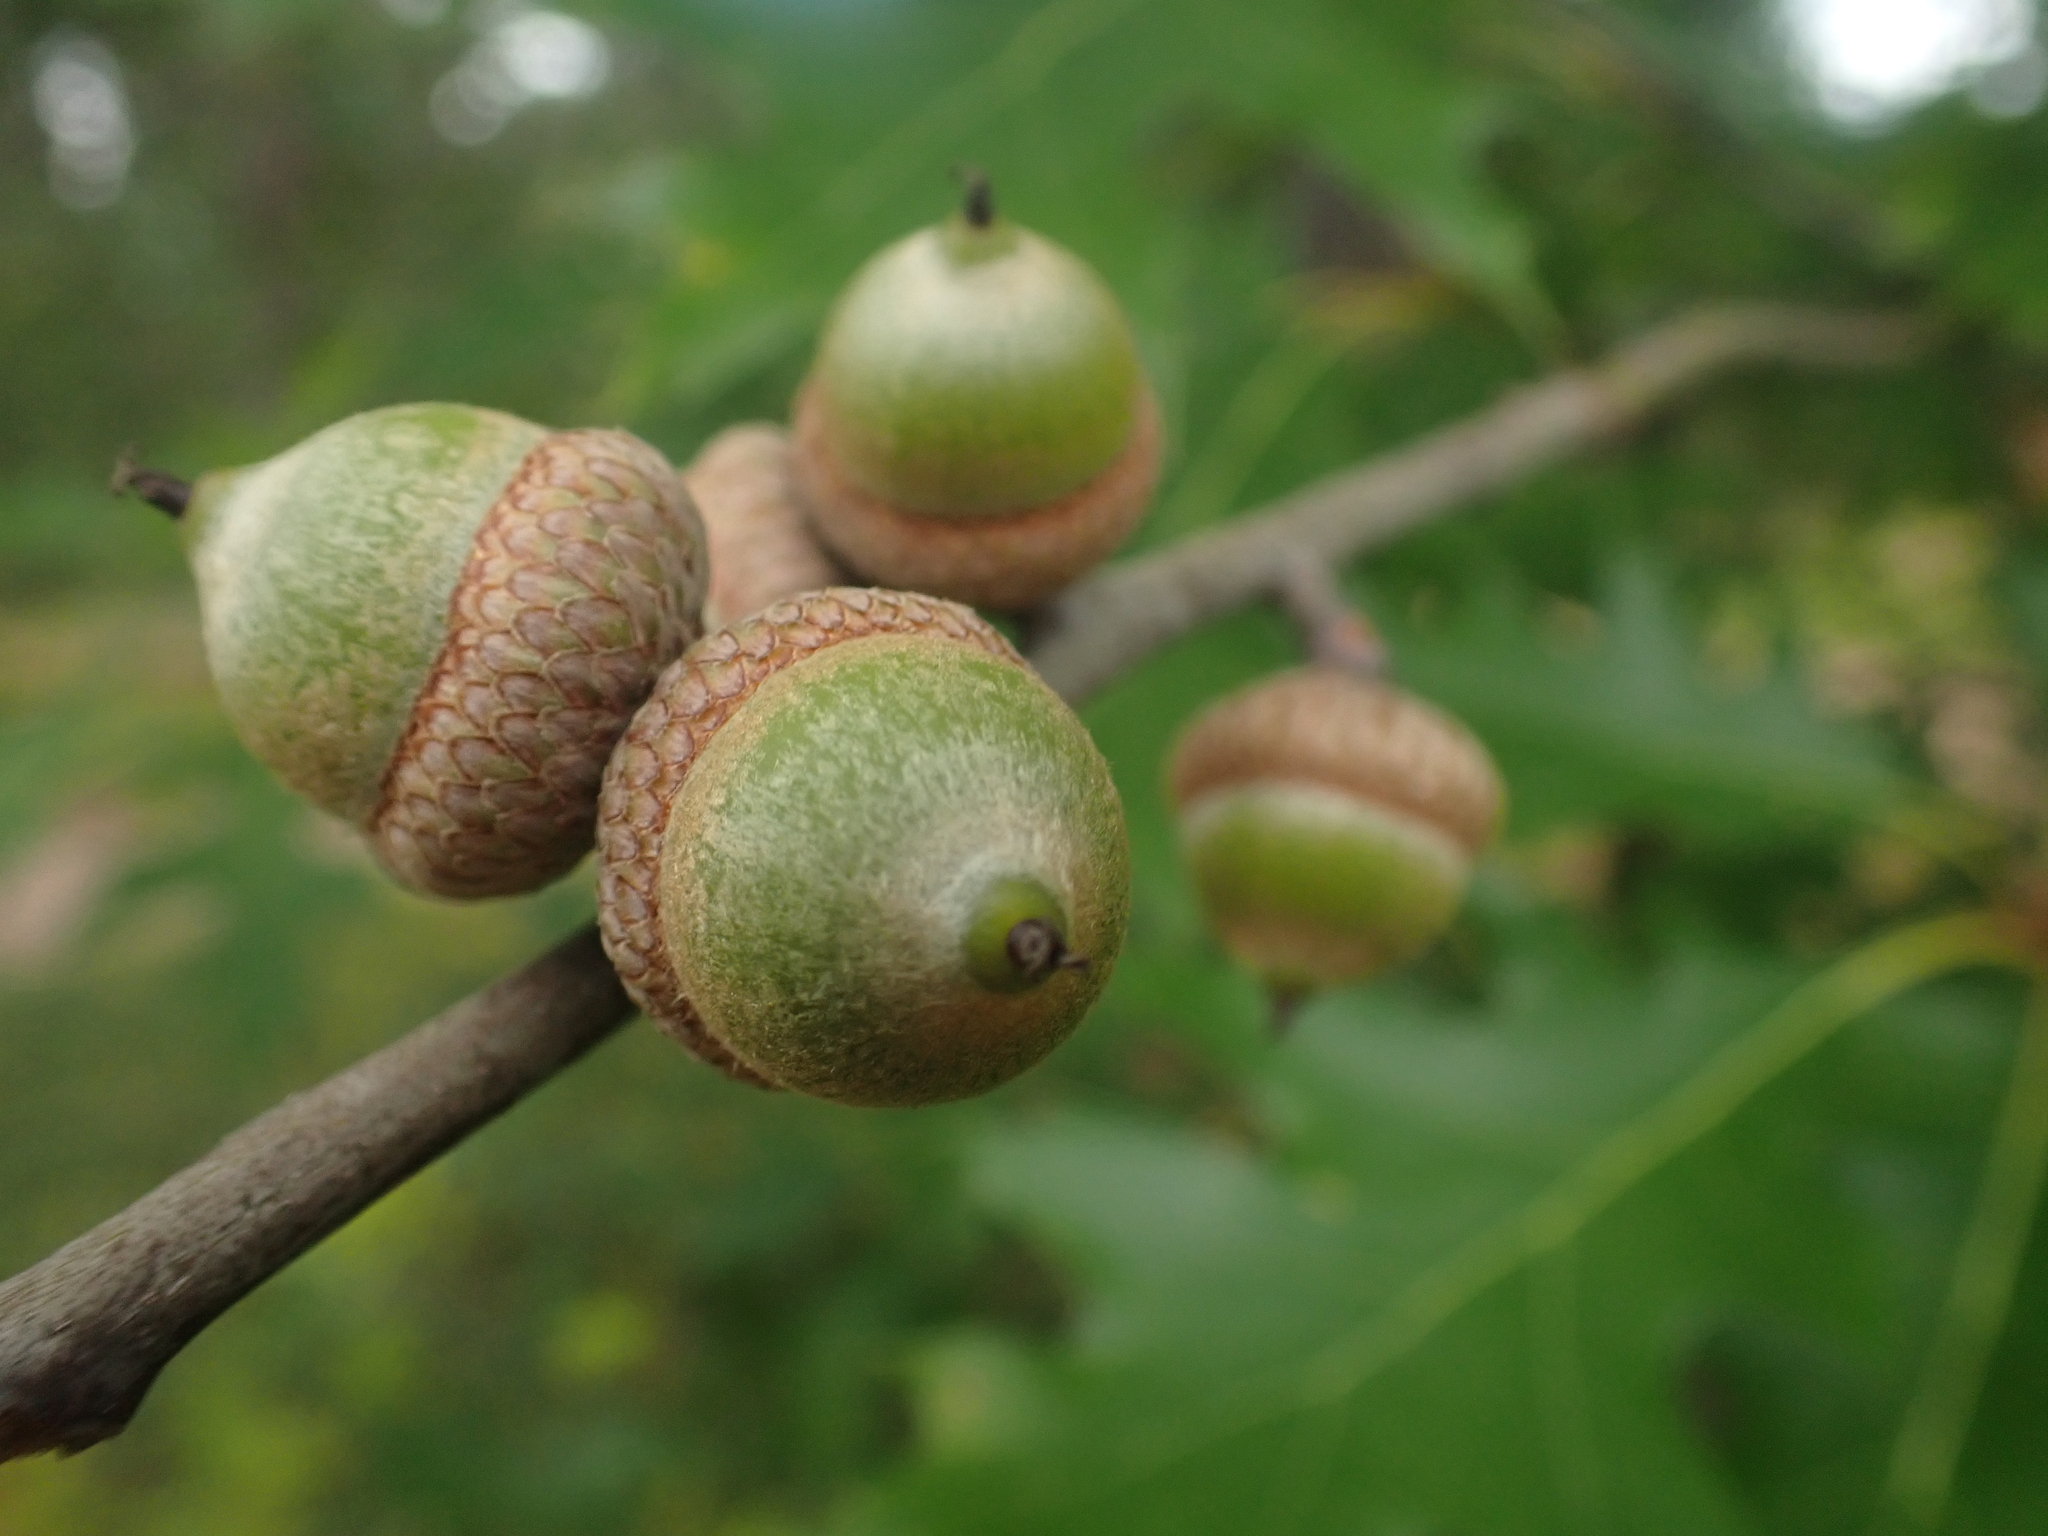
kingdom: Plantae
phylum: Tracheophyta
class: Magnoliopsida
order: Fagales
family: Fagaceae
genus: Quercus
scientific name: Quercus rubra
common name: Red oak
